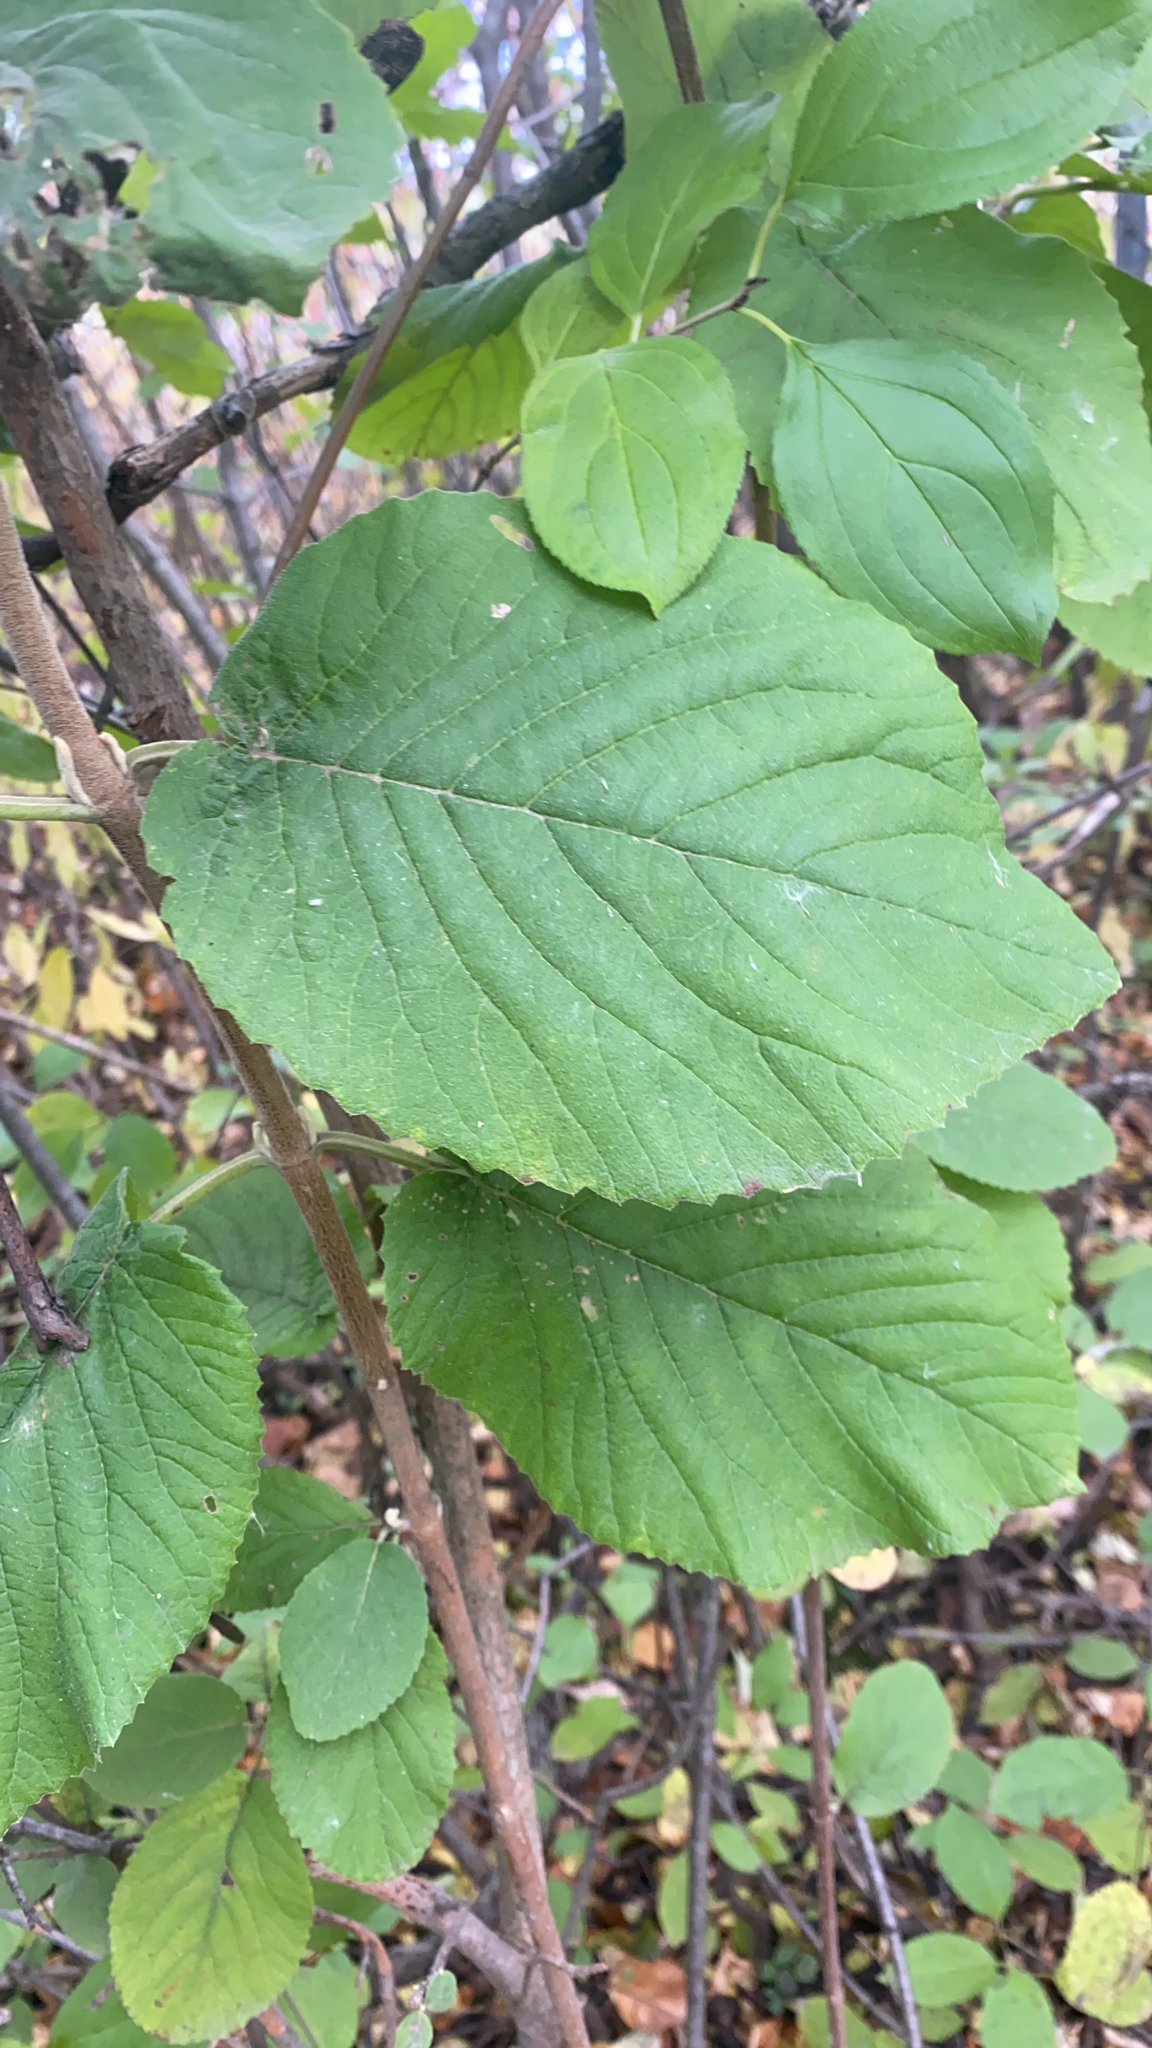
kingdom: Plantae
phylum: Tracheophyta
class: Magnoliopsida
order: Dipsacales
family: Viburnaceae
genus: Viburnum
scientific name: Viburnum lantana
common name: Wayfaring tree
